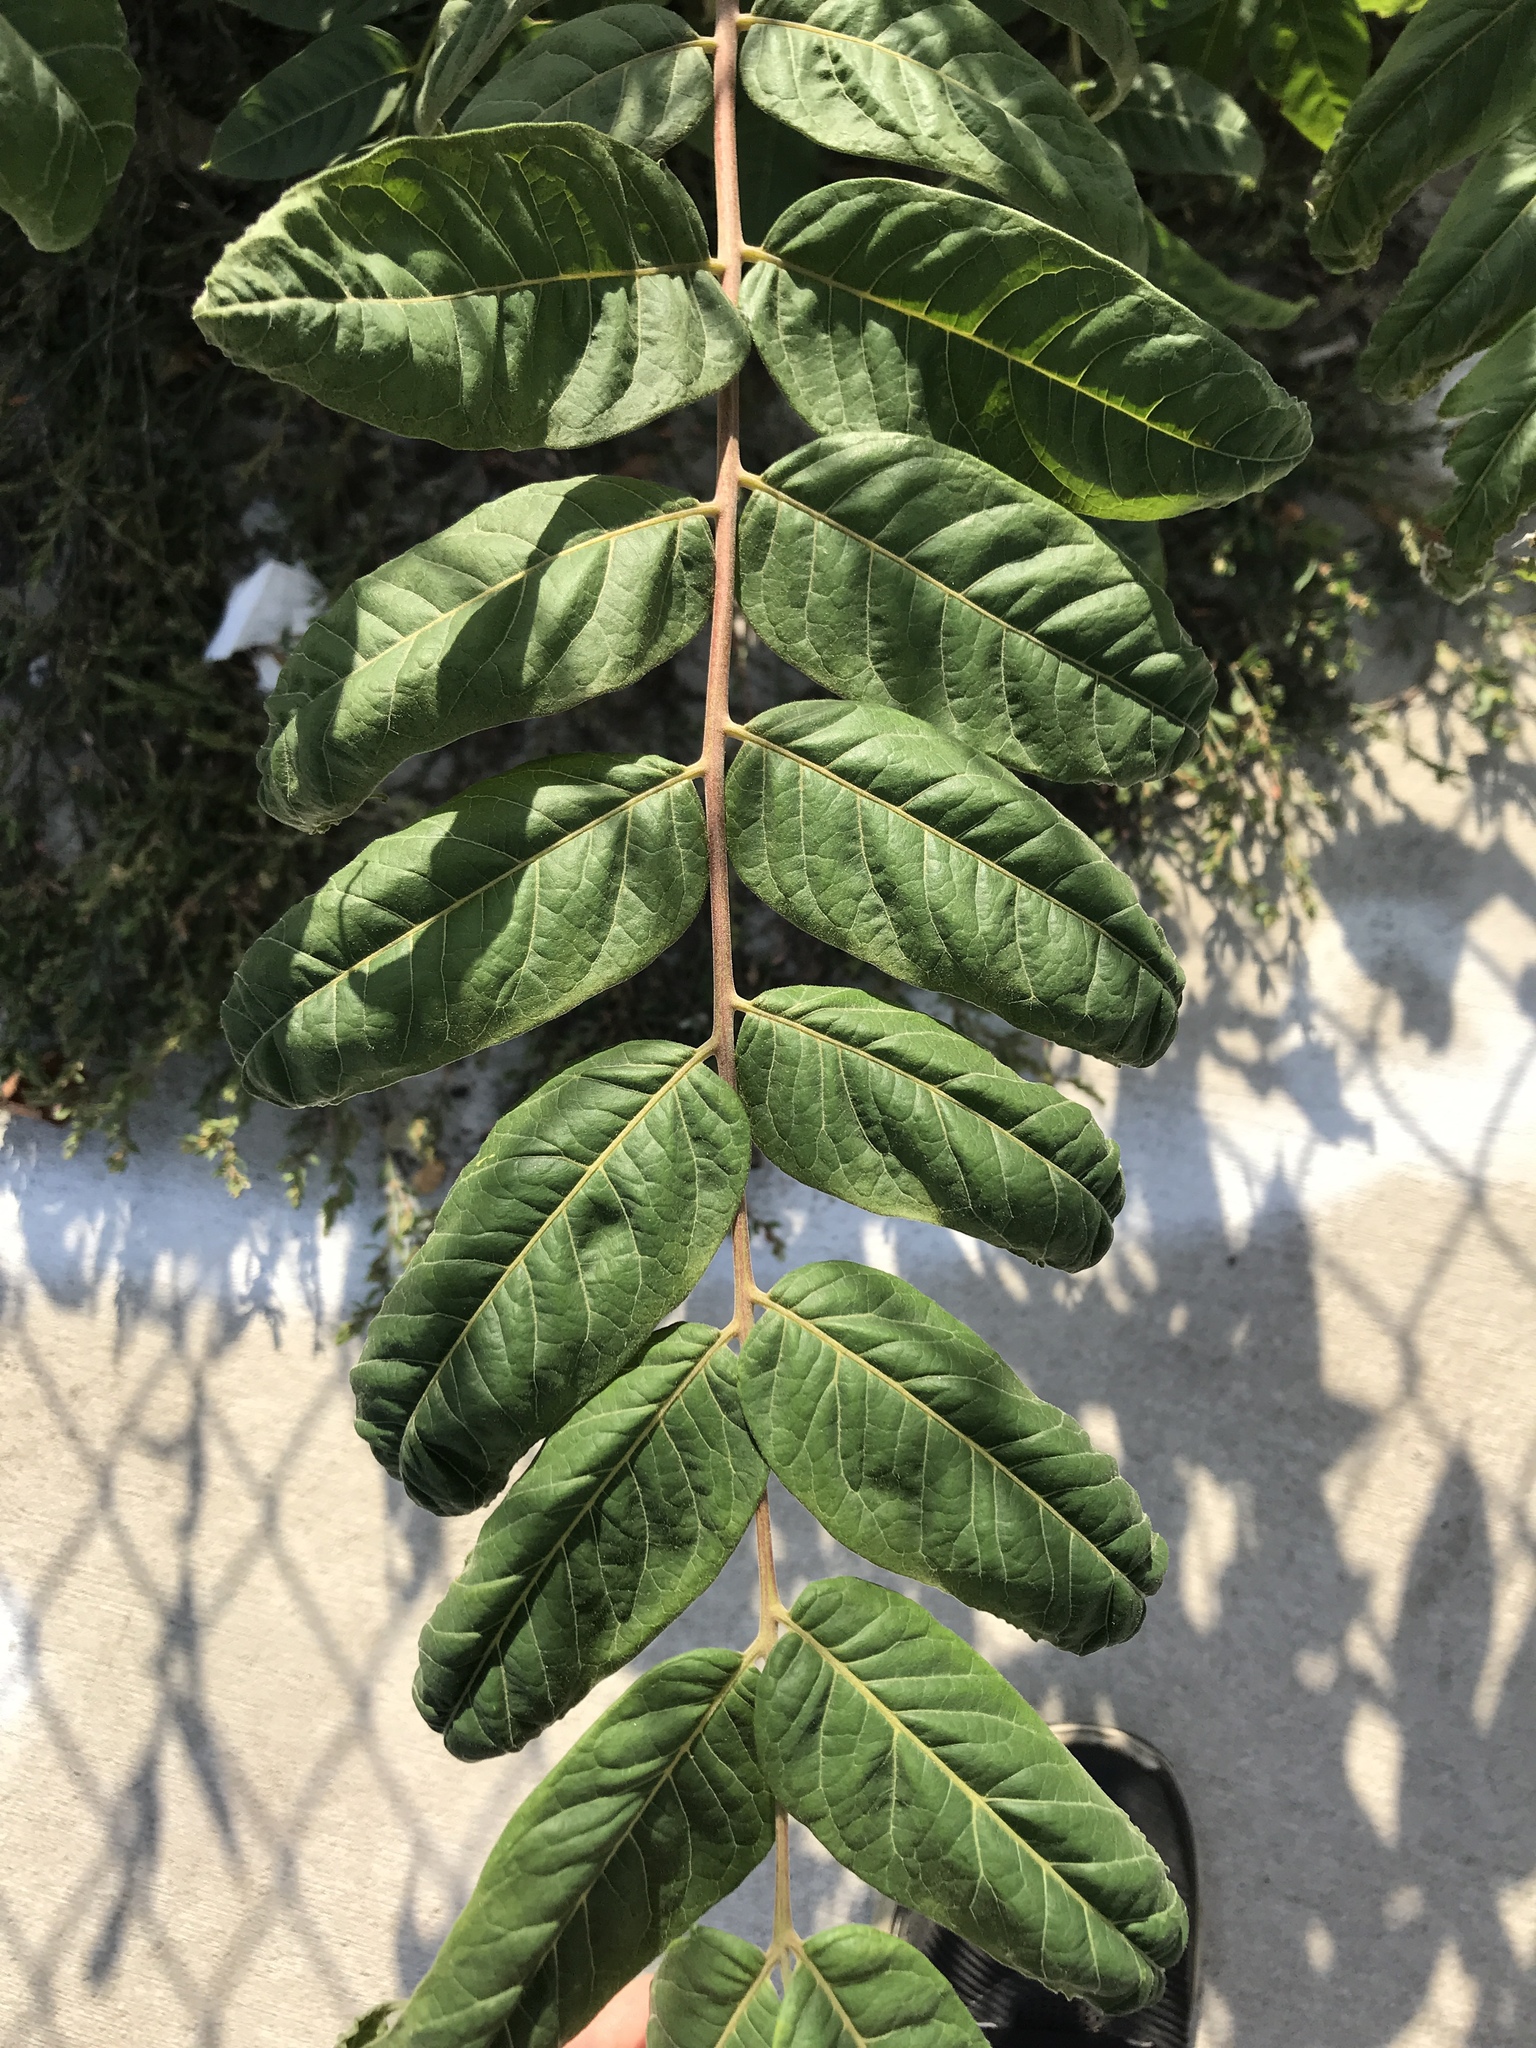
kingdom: Plantae
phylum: Tracheophyta
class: Magnoliopsida
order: Sapindales
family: Simaroubaceae
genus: Ailanthus
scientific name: Ailanthus altissima
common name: Tree-of-heaven
